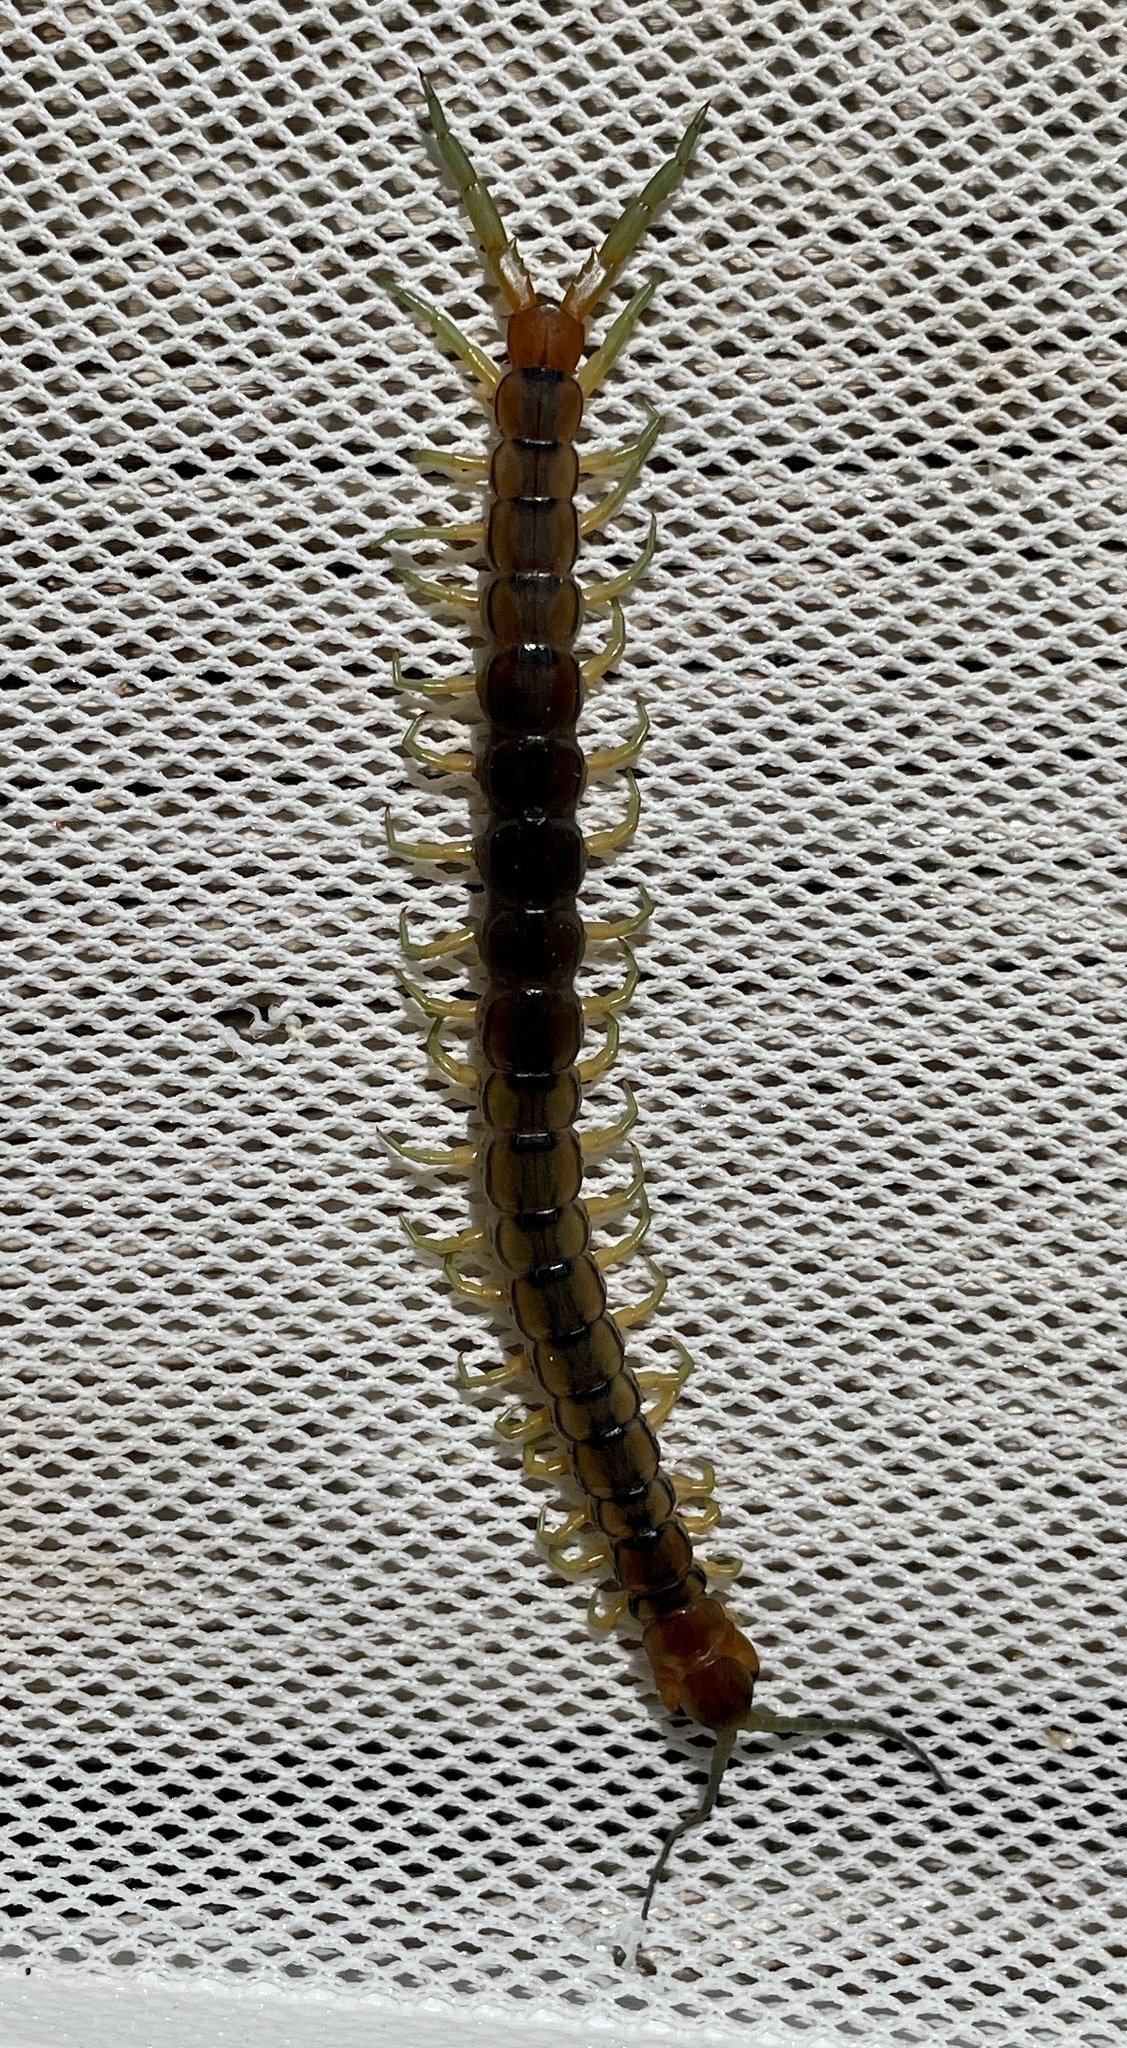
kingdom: Animalia
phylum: Arthropoda
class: Chilopoda
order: Scolopendromorpha
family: Scolopendridae
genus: Scolopendra
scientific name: Scolopendra cingulata
